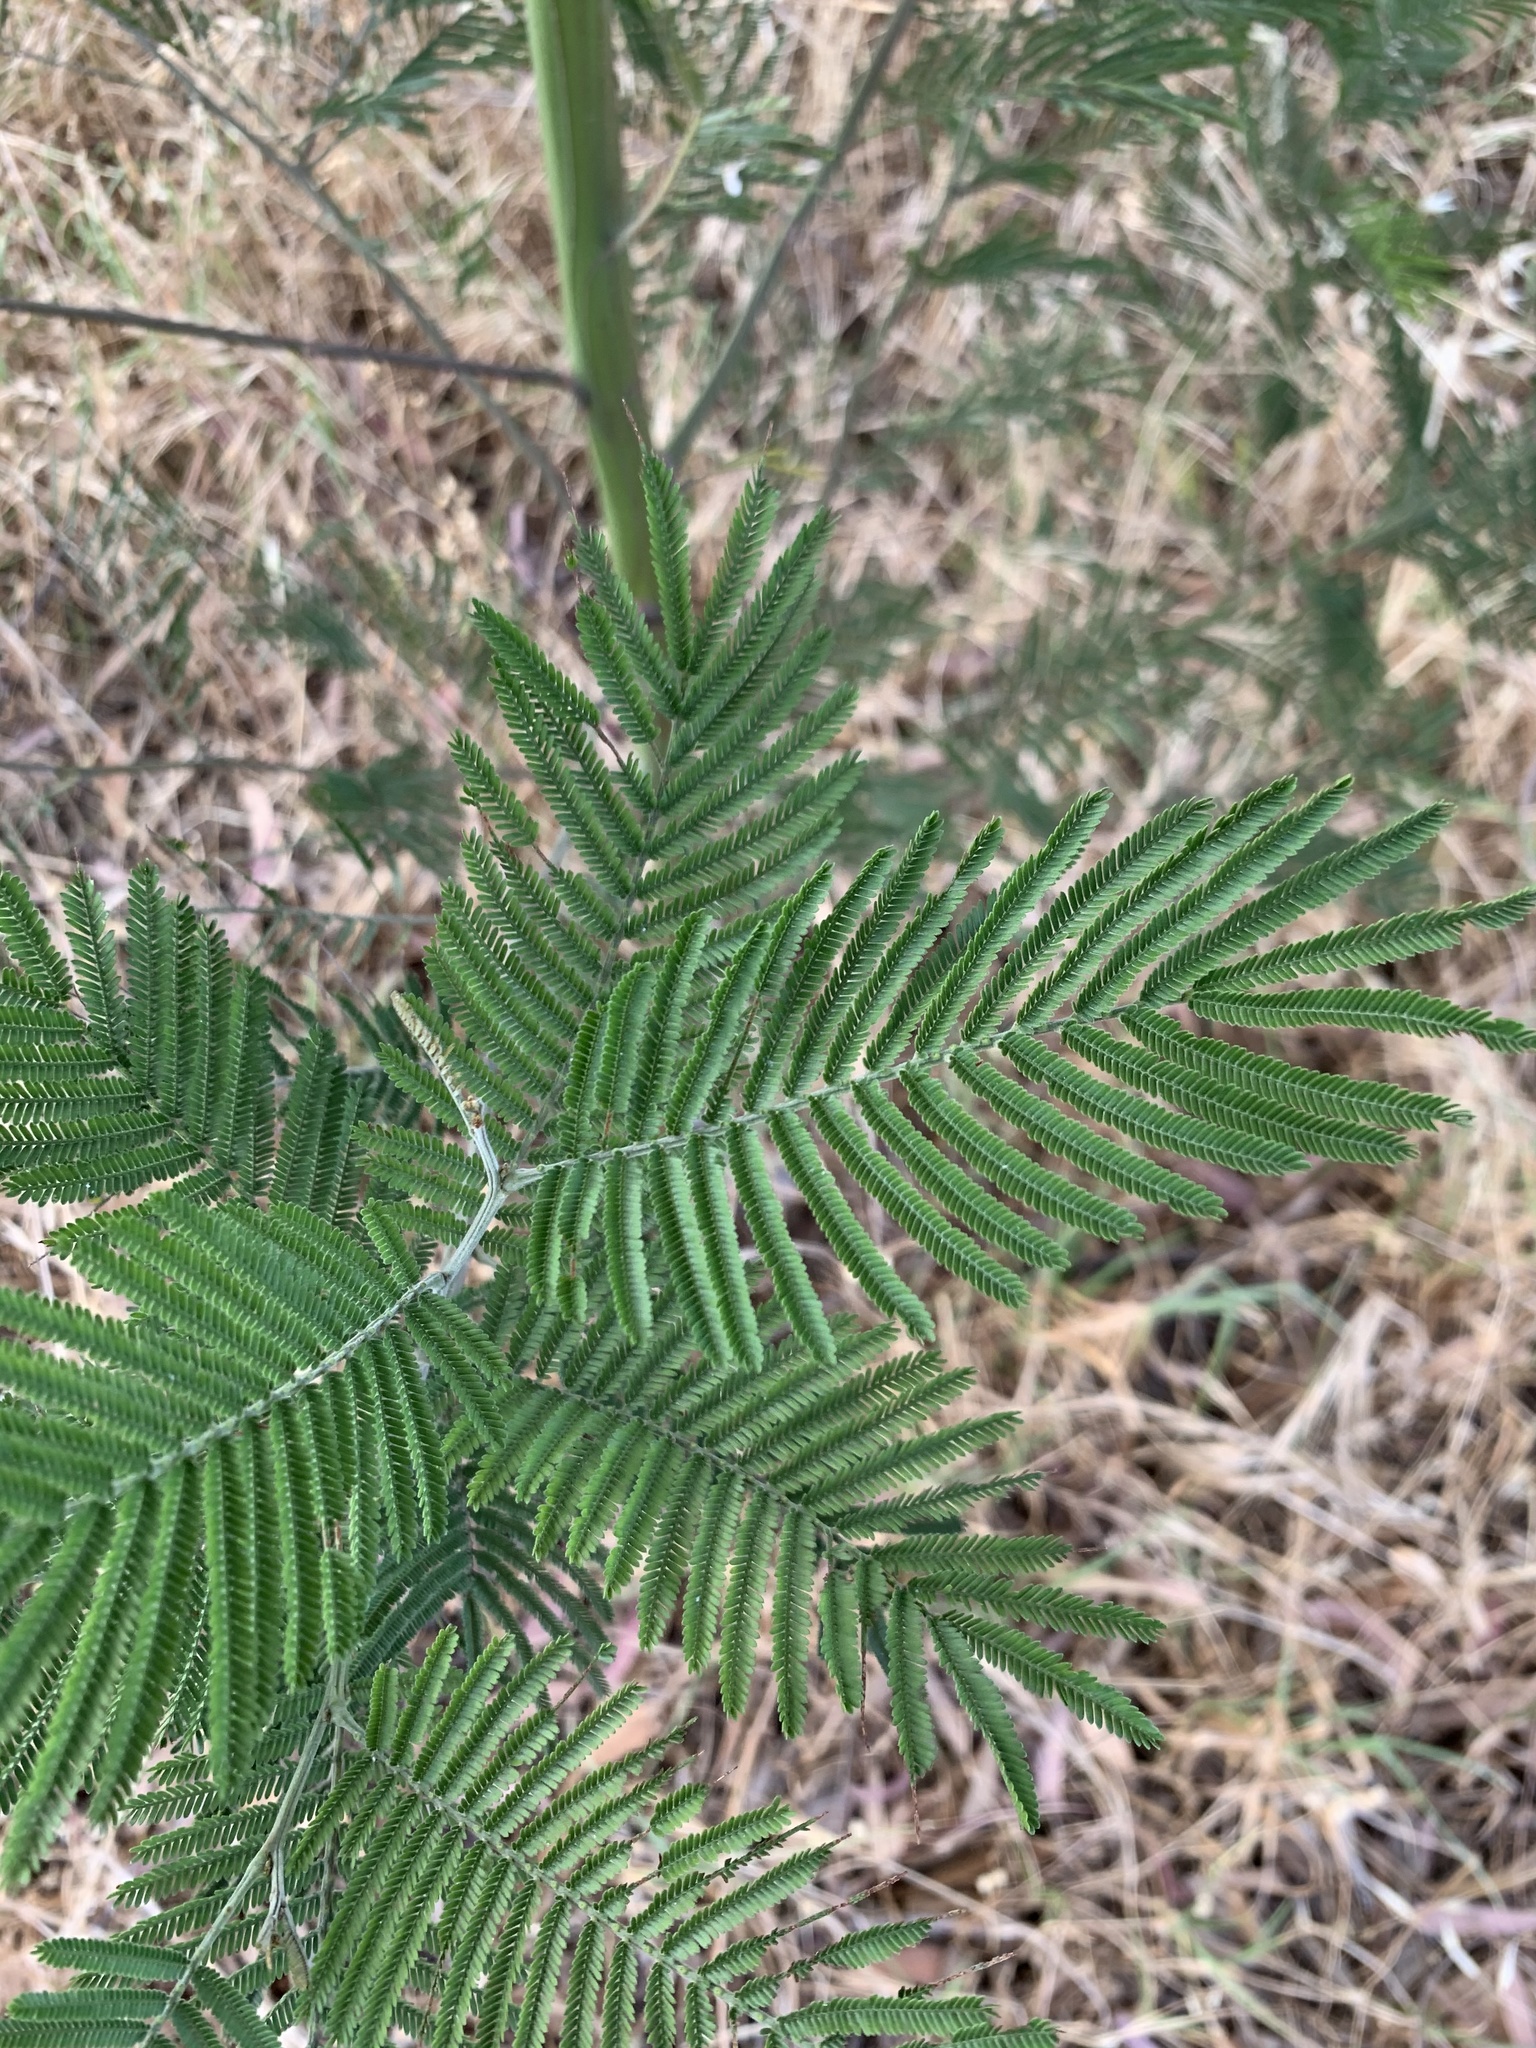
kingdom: Plantae
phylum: Tracheophyta
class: Magnoliopsida
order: Fabales
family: Fabaceae
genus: Acacia
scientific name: Acacia mearnsii
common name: Black wattle
